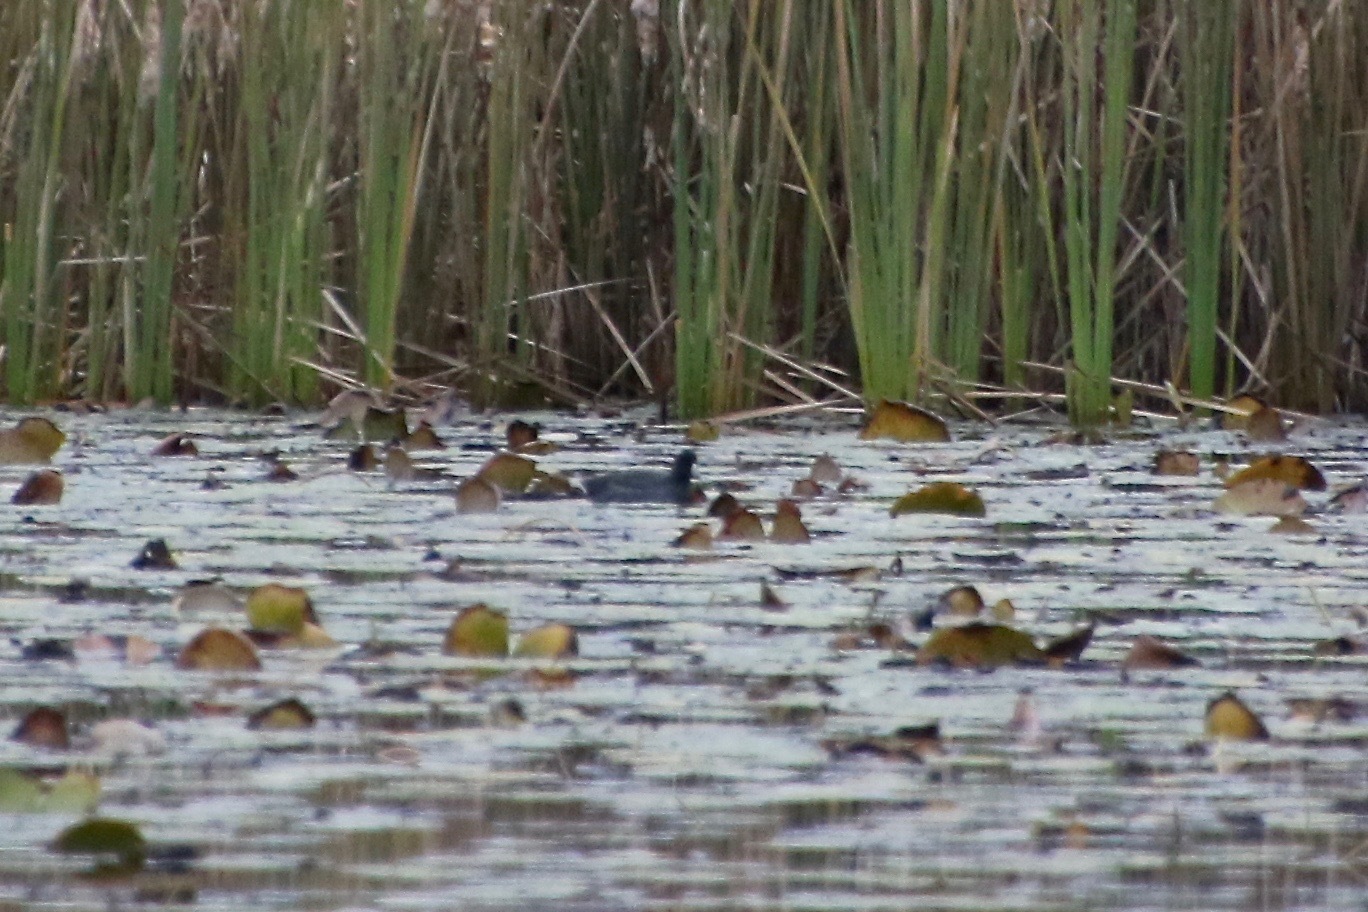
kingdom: Animalia
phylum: Chordata
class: Aves
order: Gruiformes
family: Rallidae
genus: Fulica
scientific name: Fulica americana
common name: American coot
